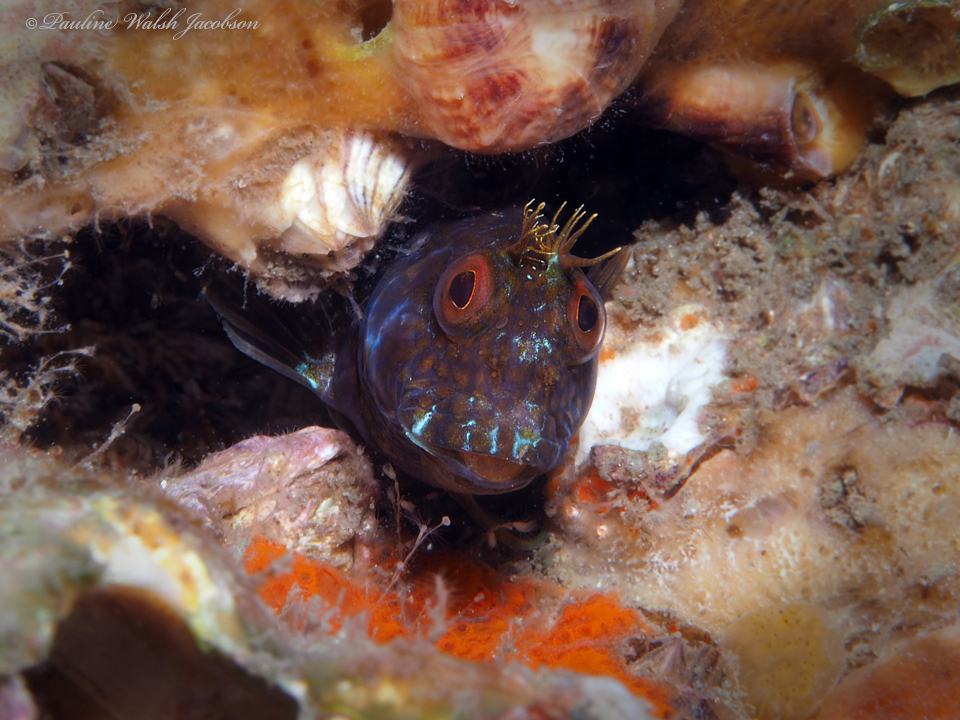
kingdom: Animalia
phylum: Chordata
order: Perciformes
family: Blenniidae
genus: Parablennius
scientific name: Parablennius marmoreus
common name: Seaweed blenny
